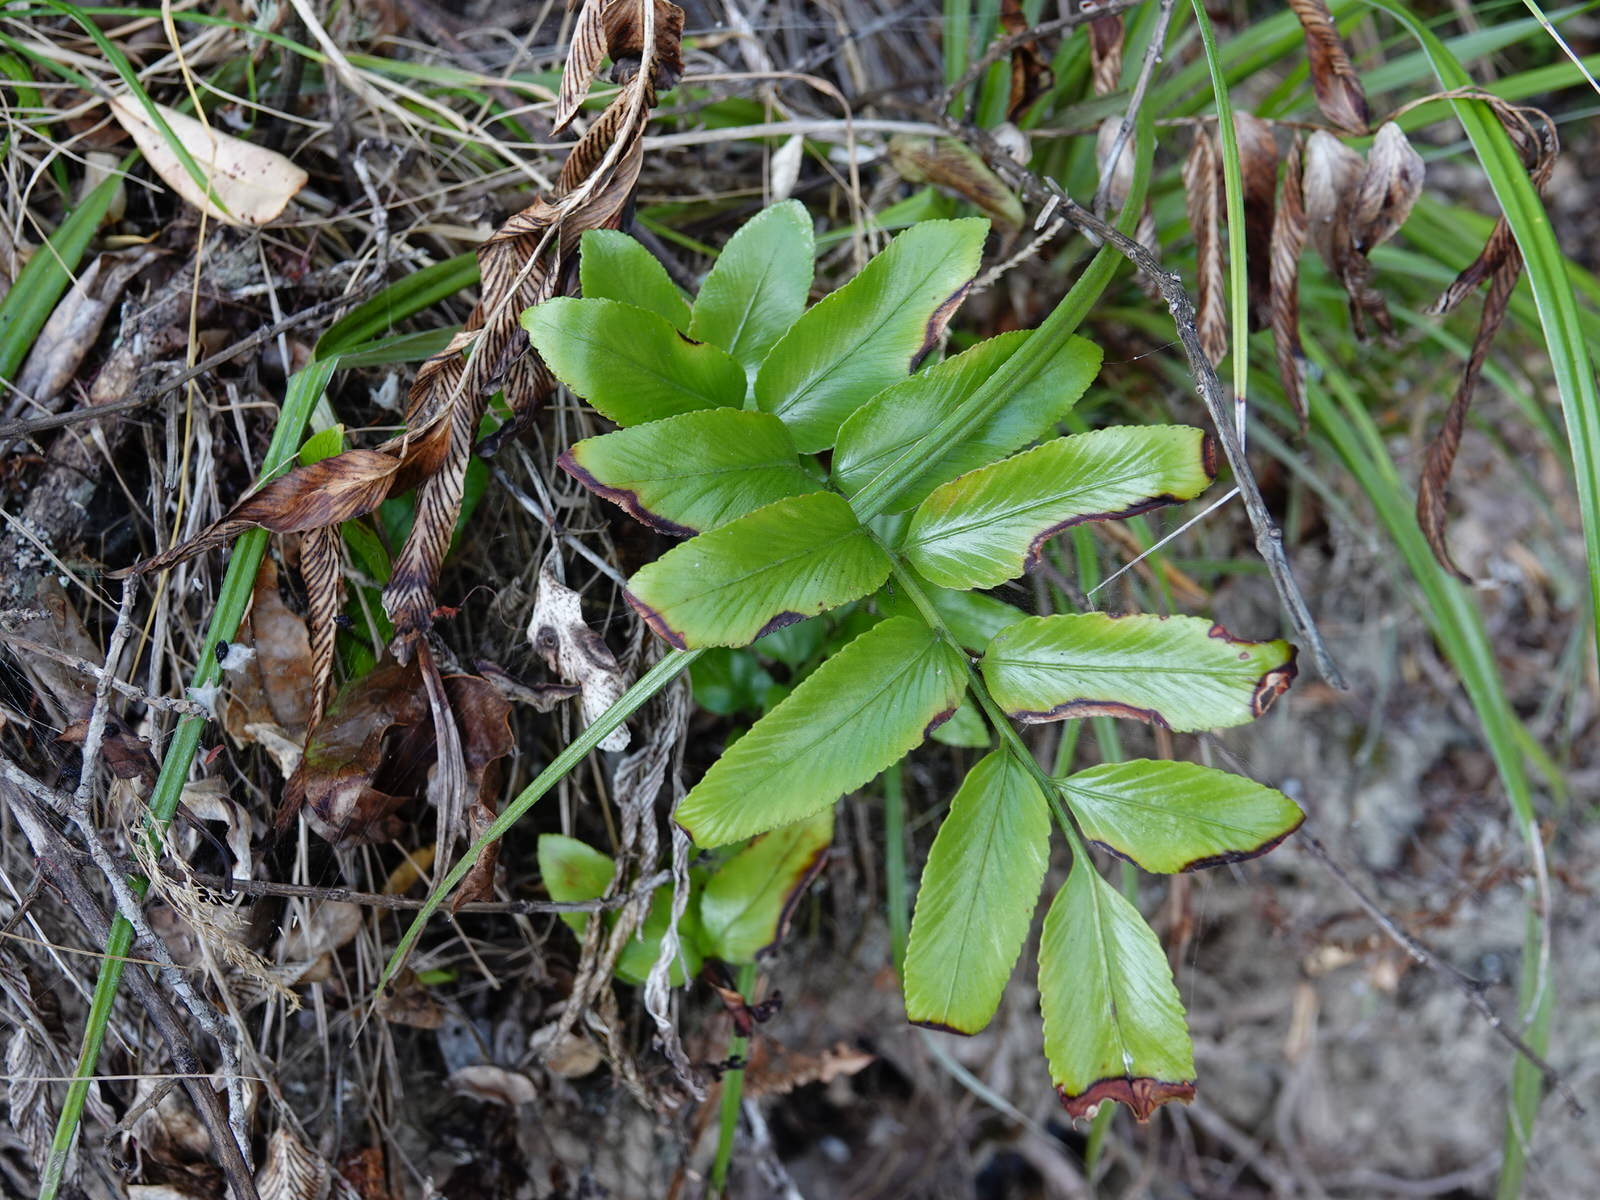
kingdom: Plantae
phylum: Tracheophyta
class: Polypodiopsida
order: Polypodiales
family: Aspleniaceae
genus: Asplenium
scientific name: Asplenium oblongifolium
